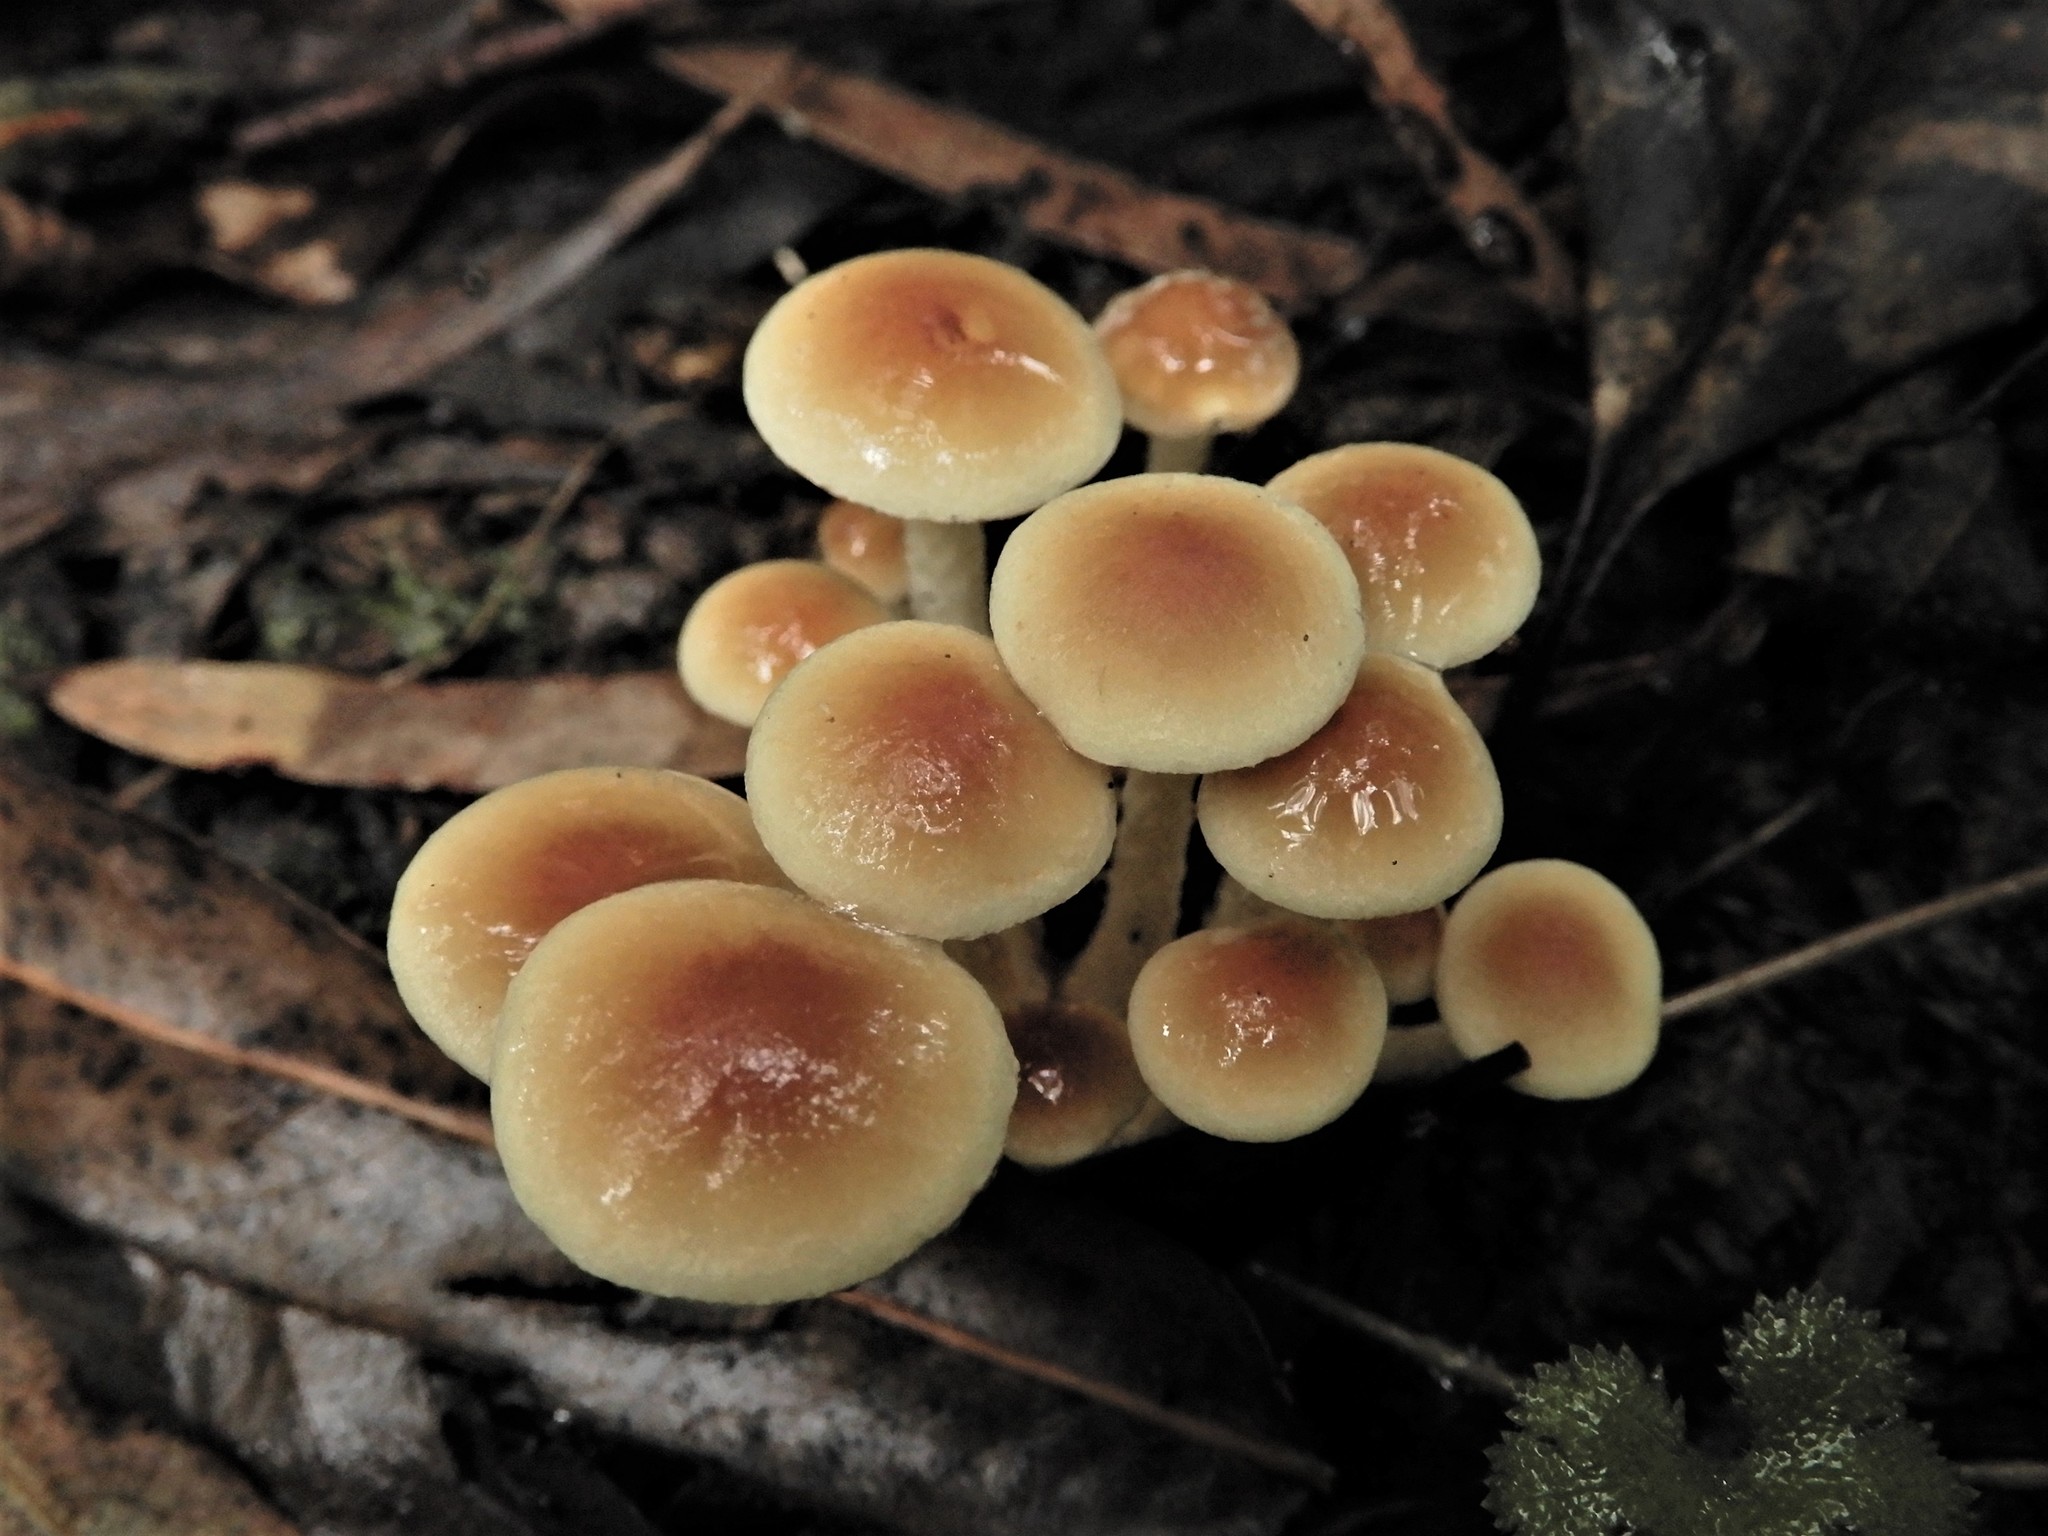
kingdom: Fungi
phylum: Basidiomycota
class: Agaricomycetes
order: Agaricales
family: Strophariaceae
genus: Hypholoma
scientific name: Hypholoma australianum
